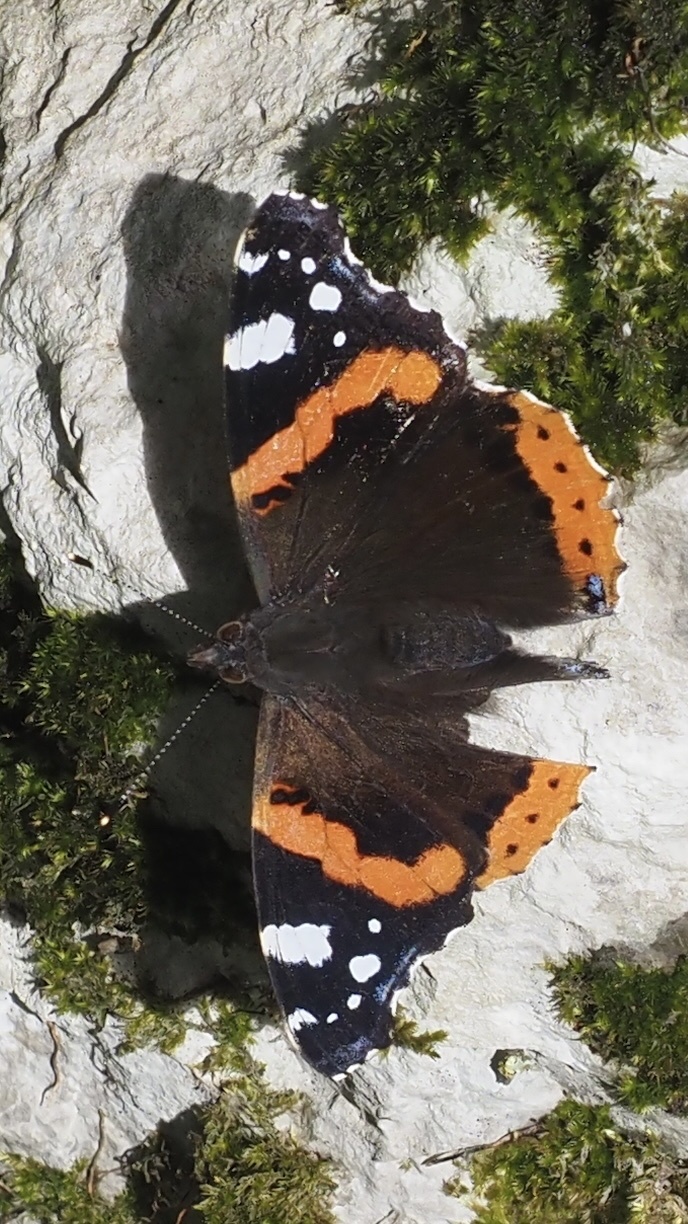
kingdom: Animalia
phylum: Arthropoda
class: Insecta
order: Lepidoptera
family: Nymphalidae
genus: Vanessa
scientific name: Vanessa atalanta
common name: Red admiral
